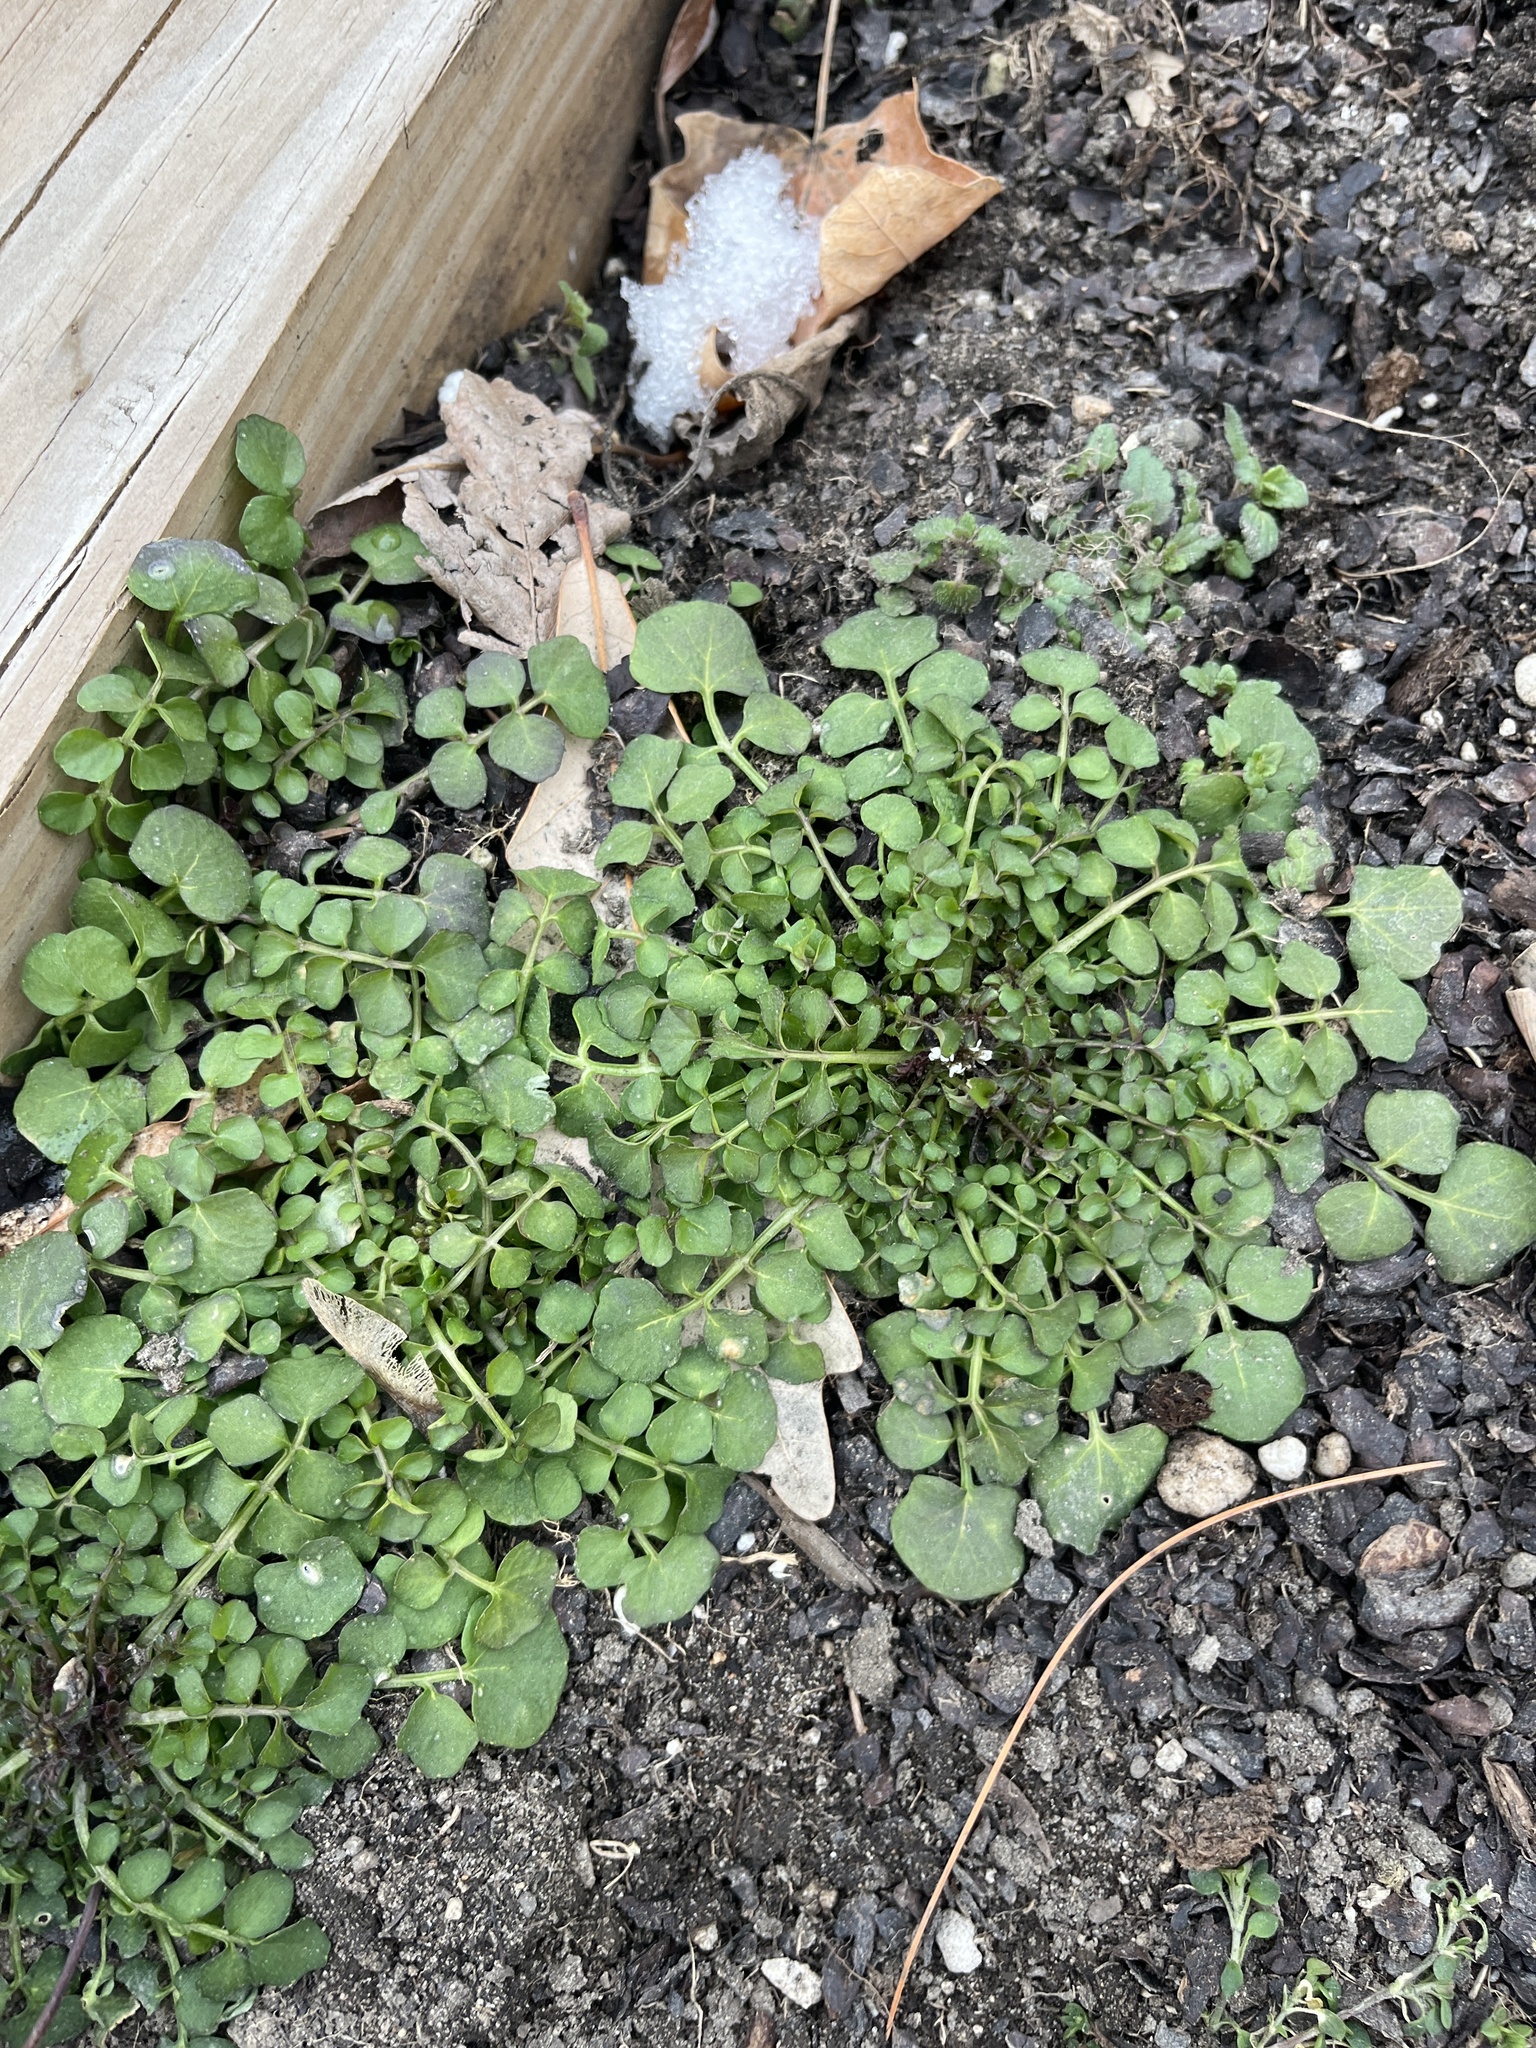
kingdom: Plantae
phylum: Tracheophyta
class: Magnoliopsida
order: Brassicales
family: Brassicaceae
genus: Cardamine
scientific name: Cardamine hirsuta
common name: Hairy bittercress
